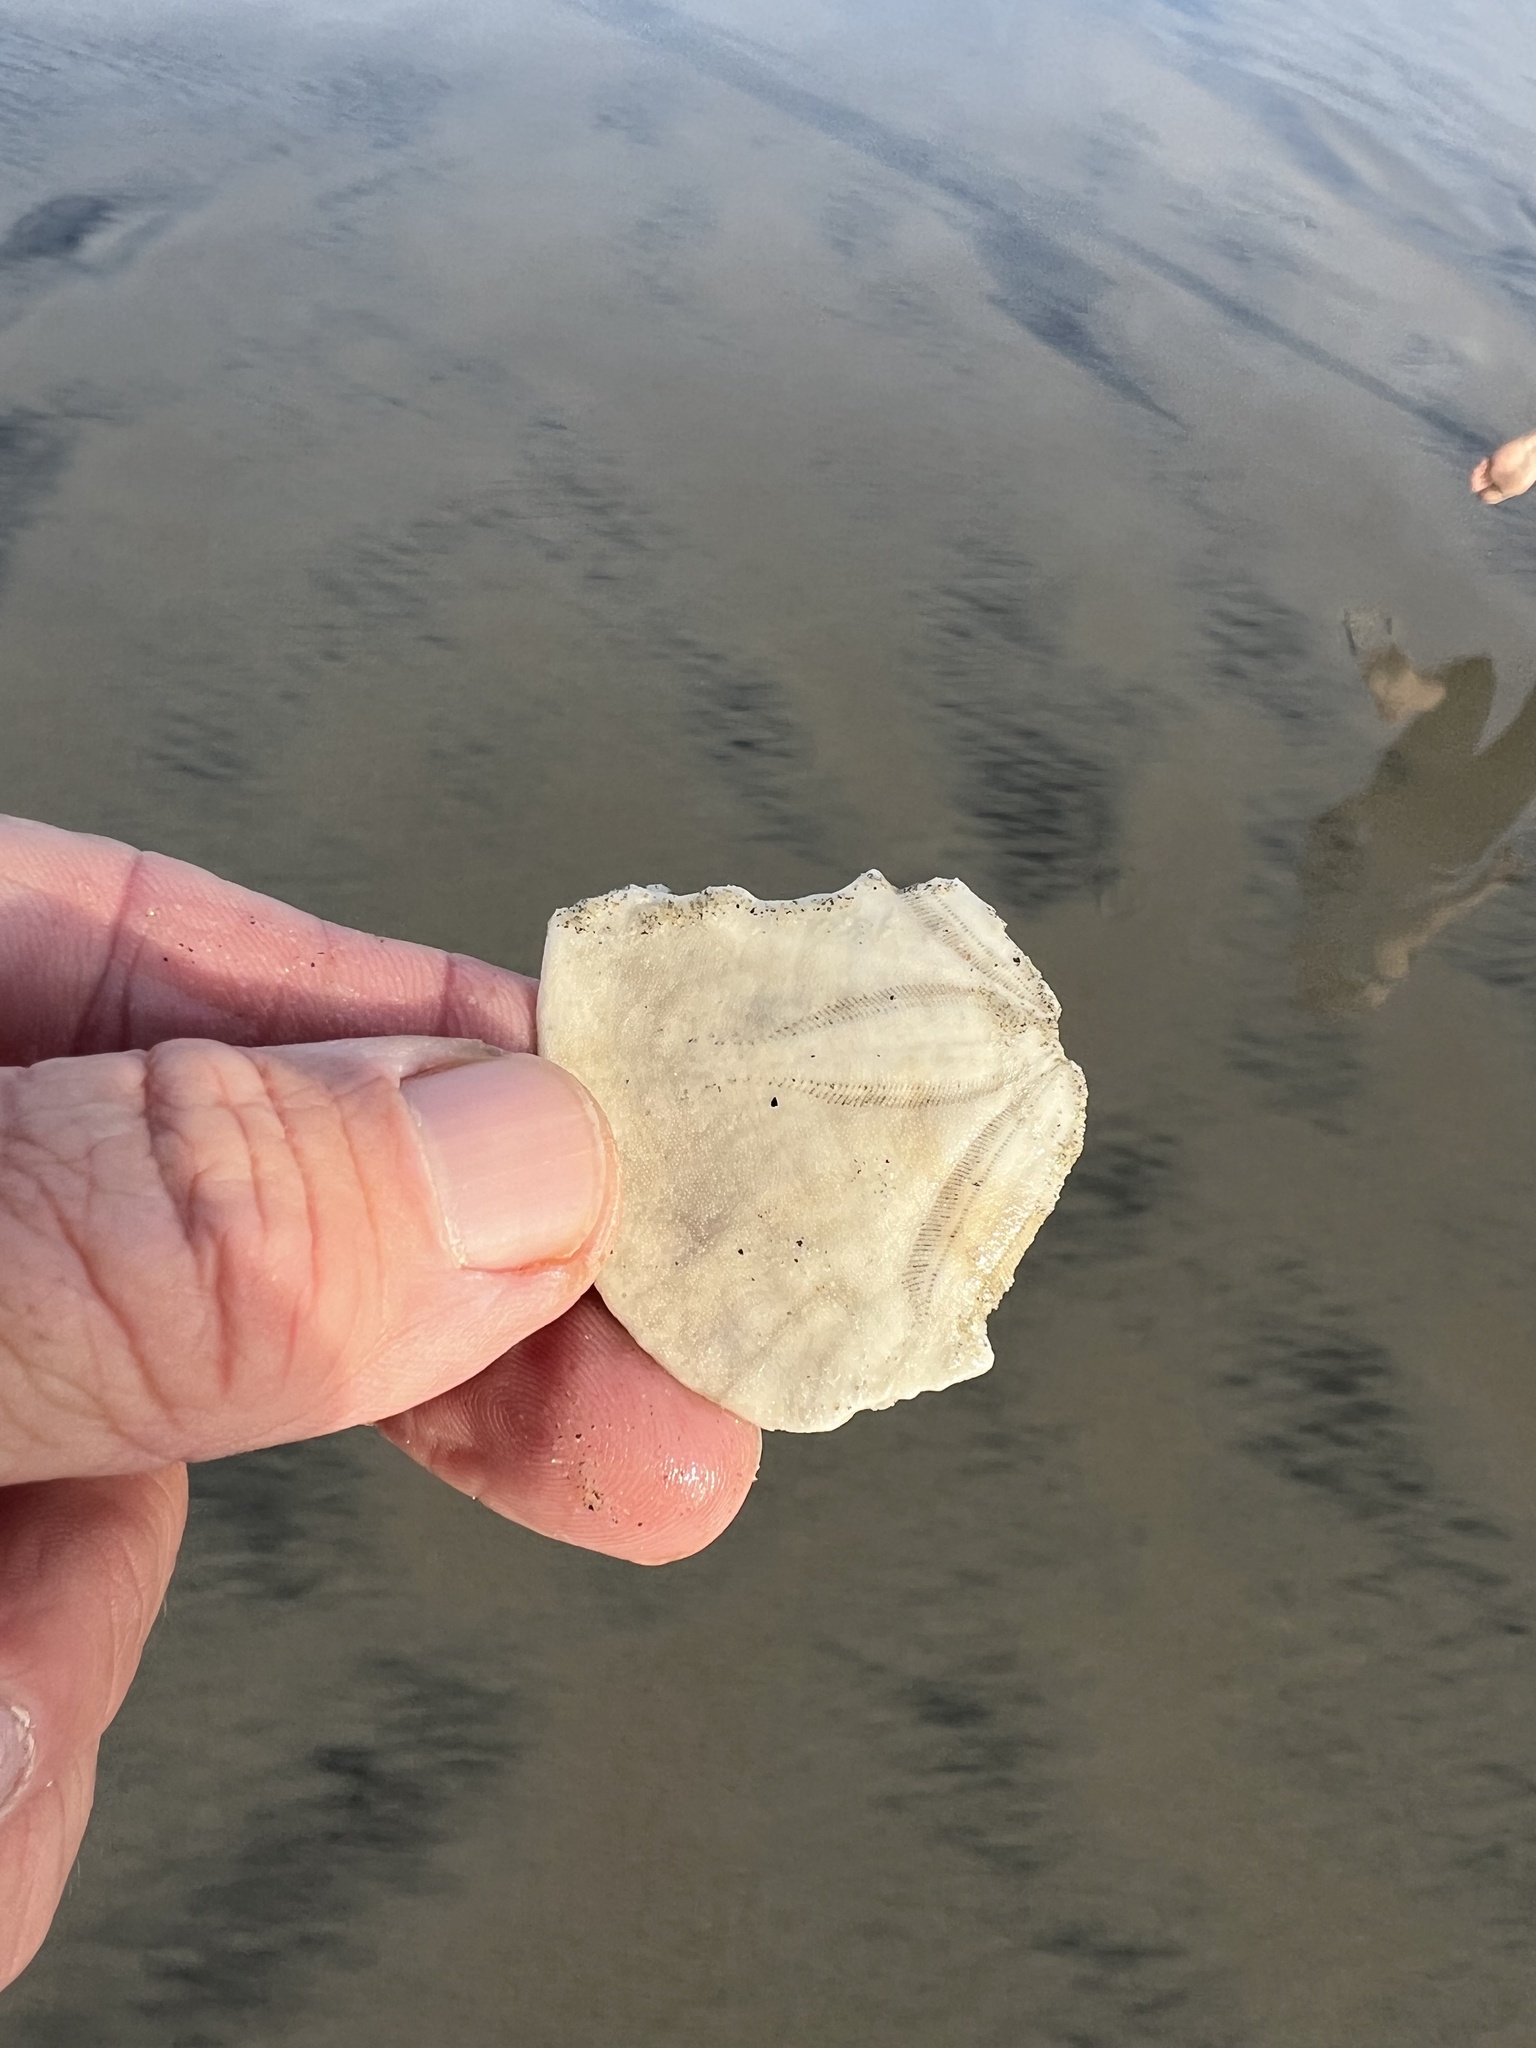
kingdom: Animalia
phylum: Echinodermata
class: Echinoidea
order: Echinolampadacea
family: Dendrasteridae
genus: Dendraster
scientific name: Dendraster excentricus
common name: Eccentric sand dollar sea urchin
